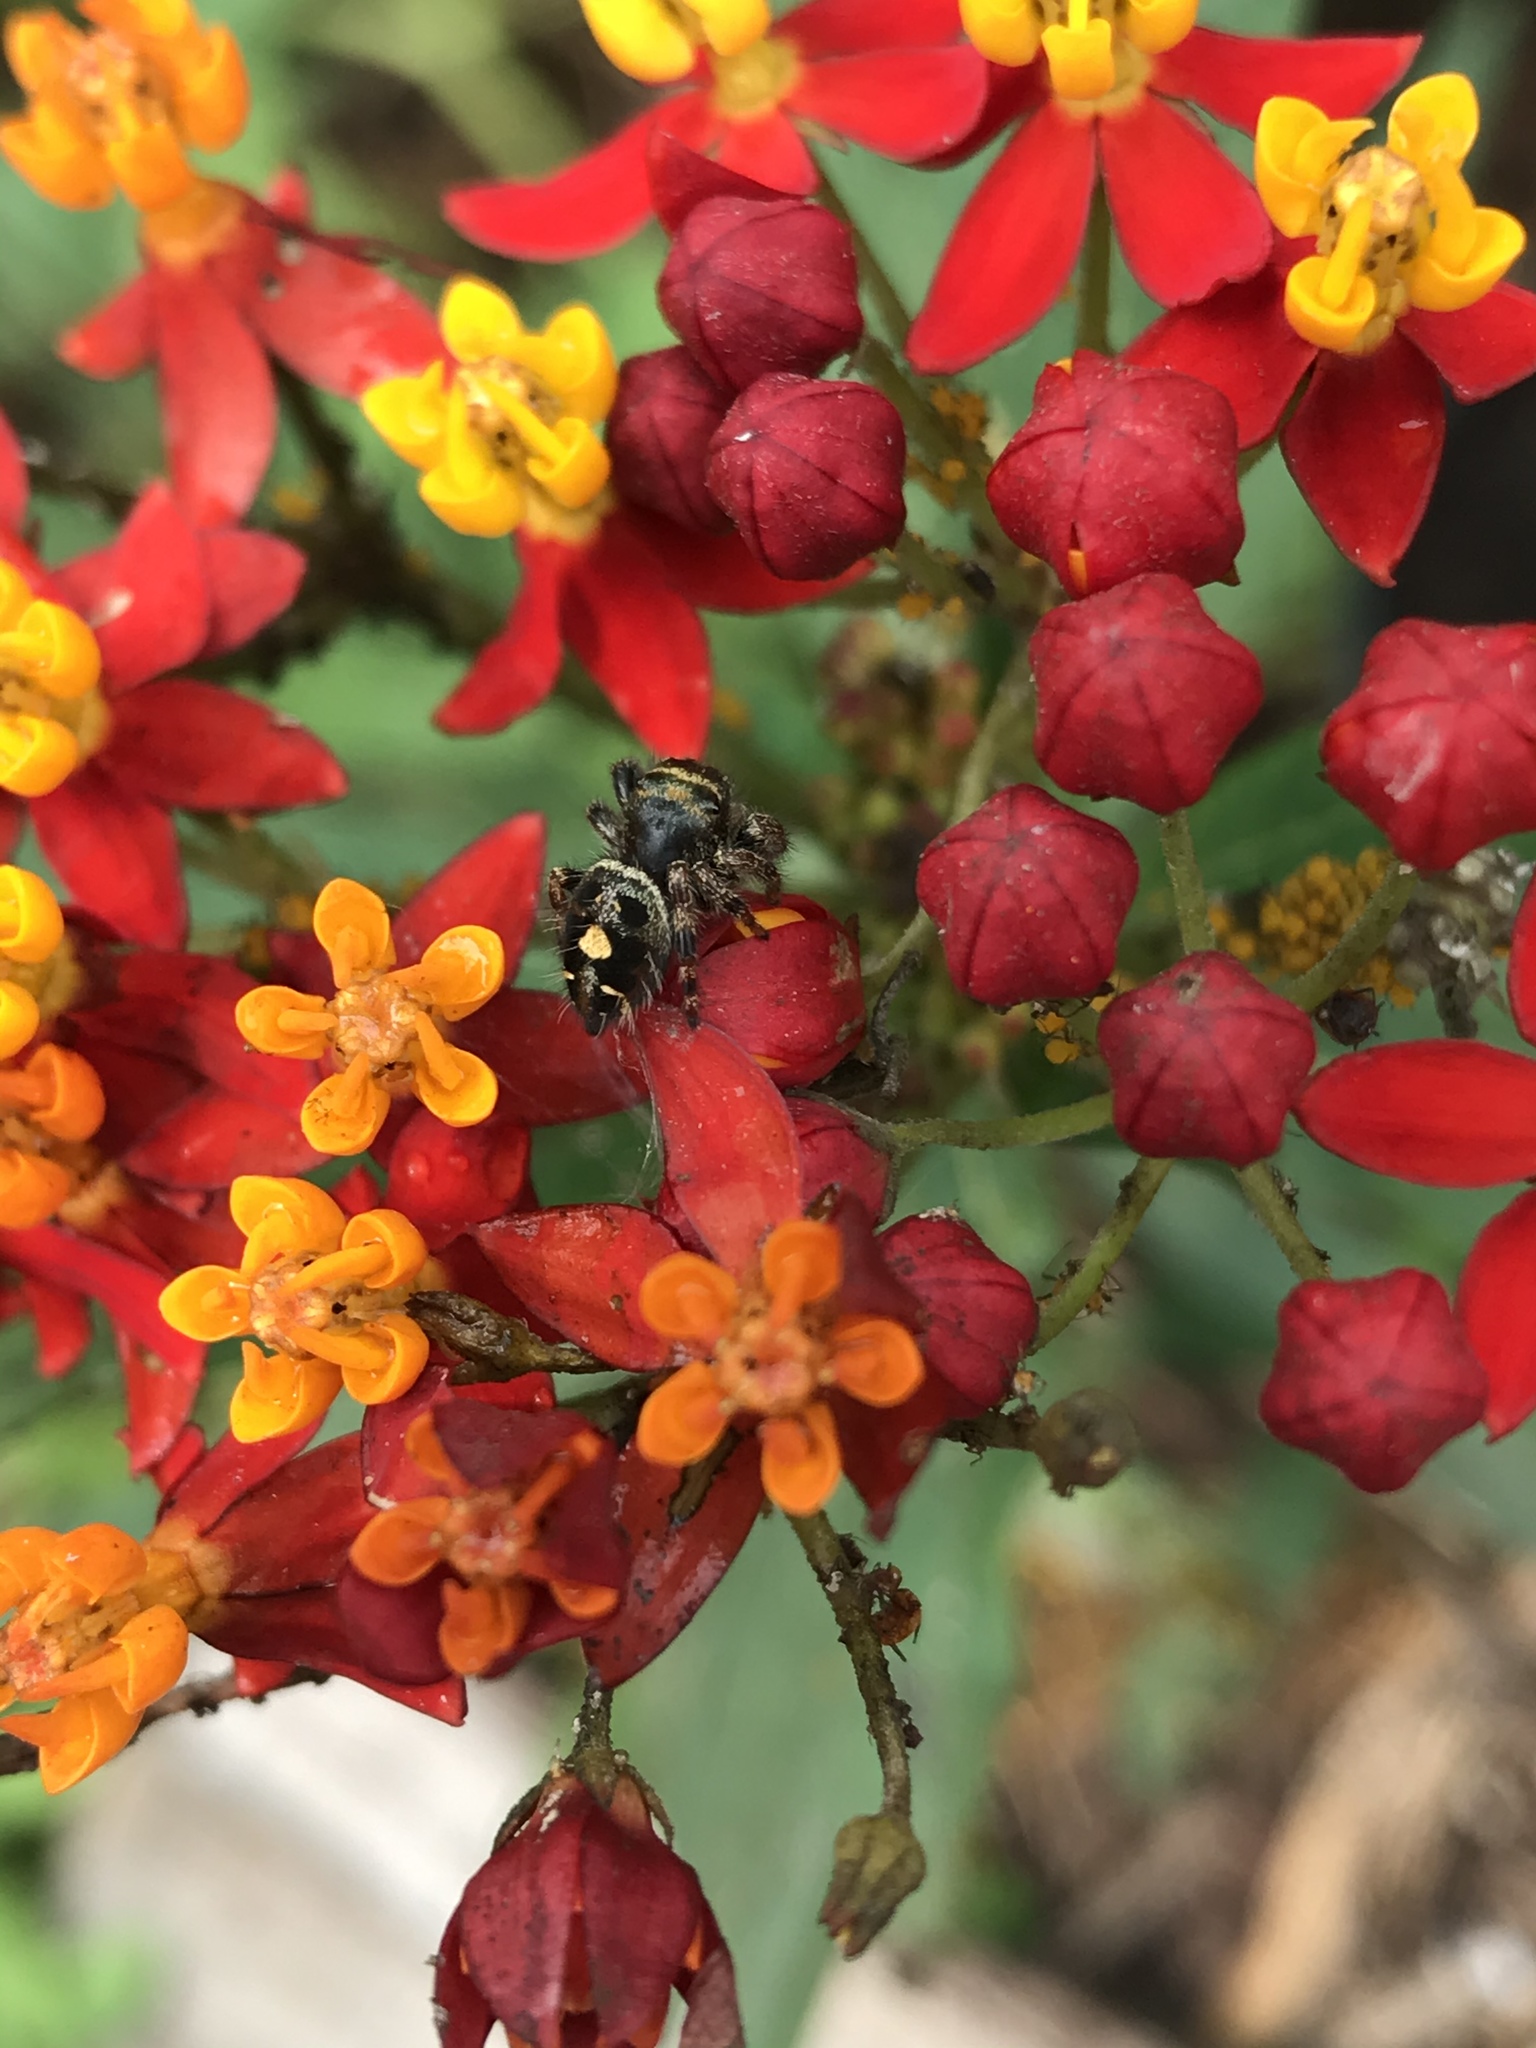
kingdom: Animalia
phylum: Arthropoda
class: Arachnida
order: Araneae
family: Salticidae
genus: Phidippus
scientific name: Phidippus audax
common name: Bold jumper
